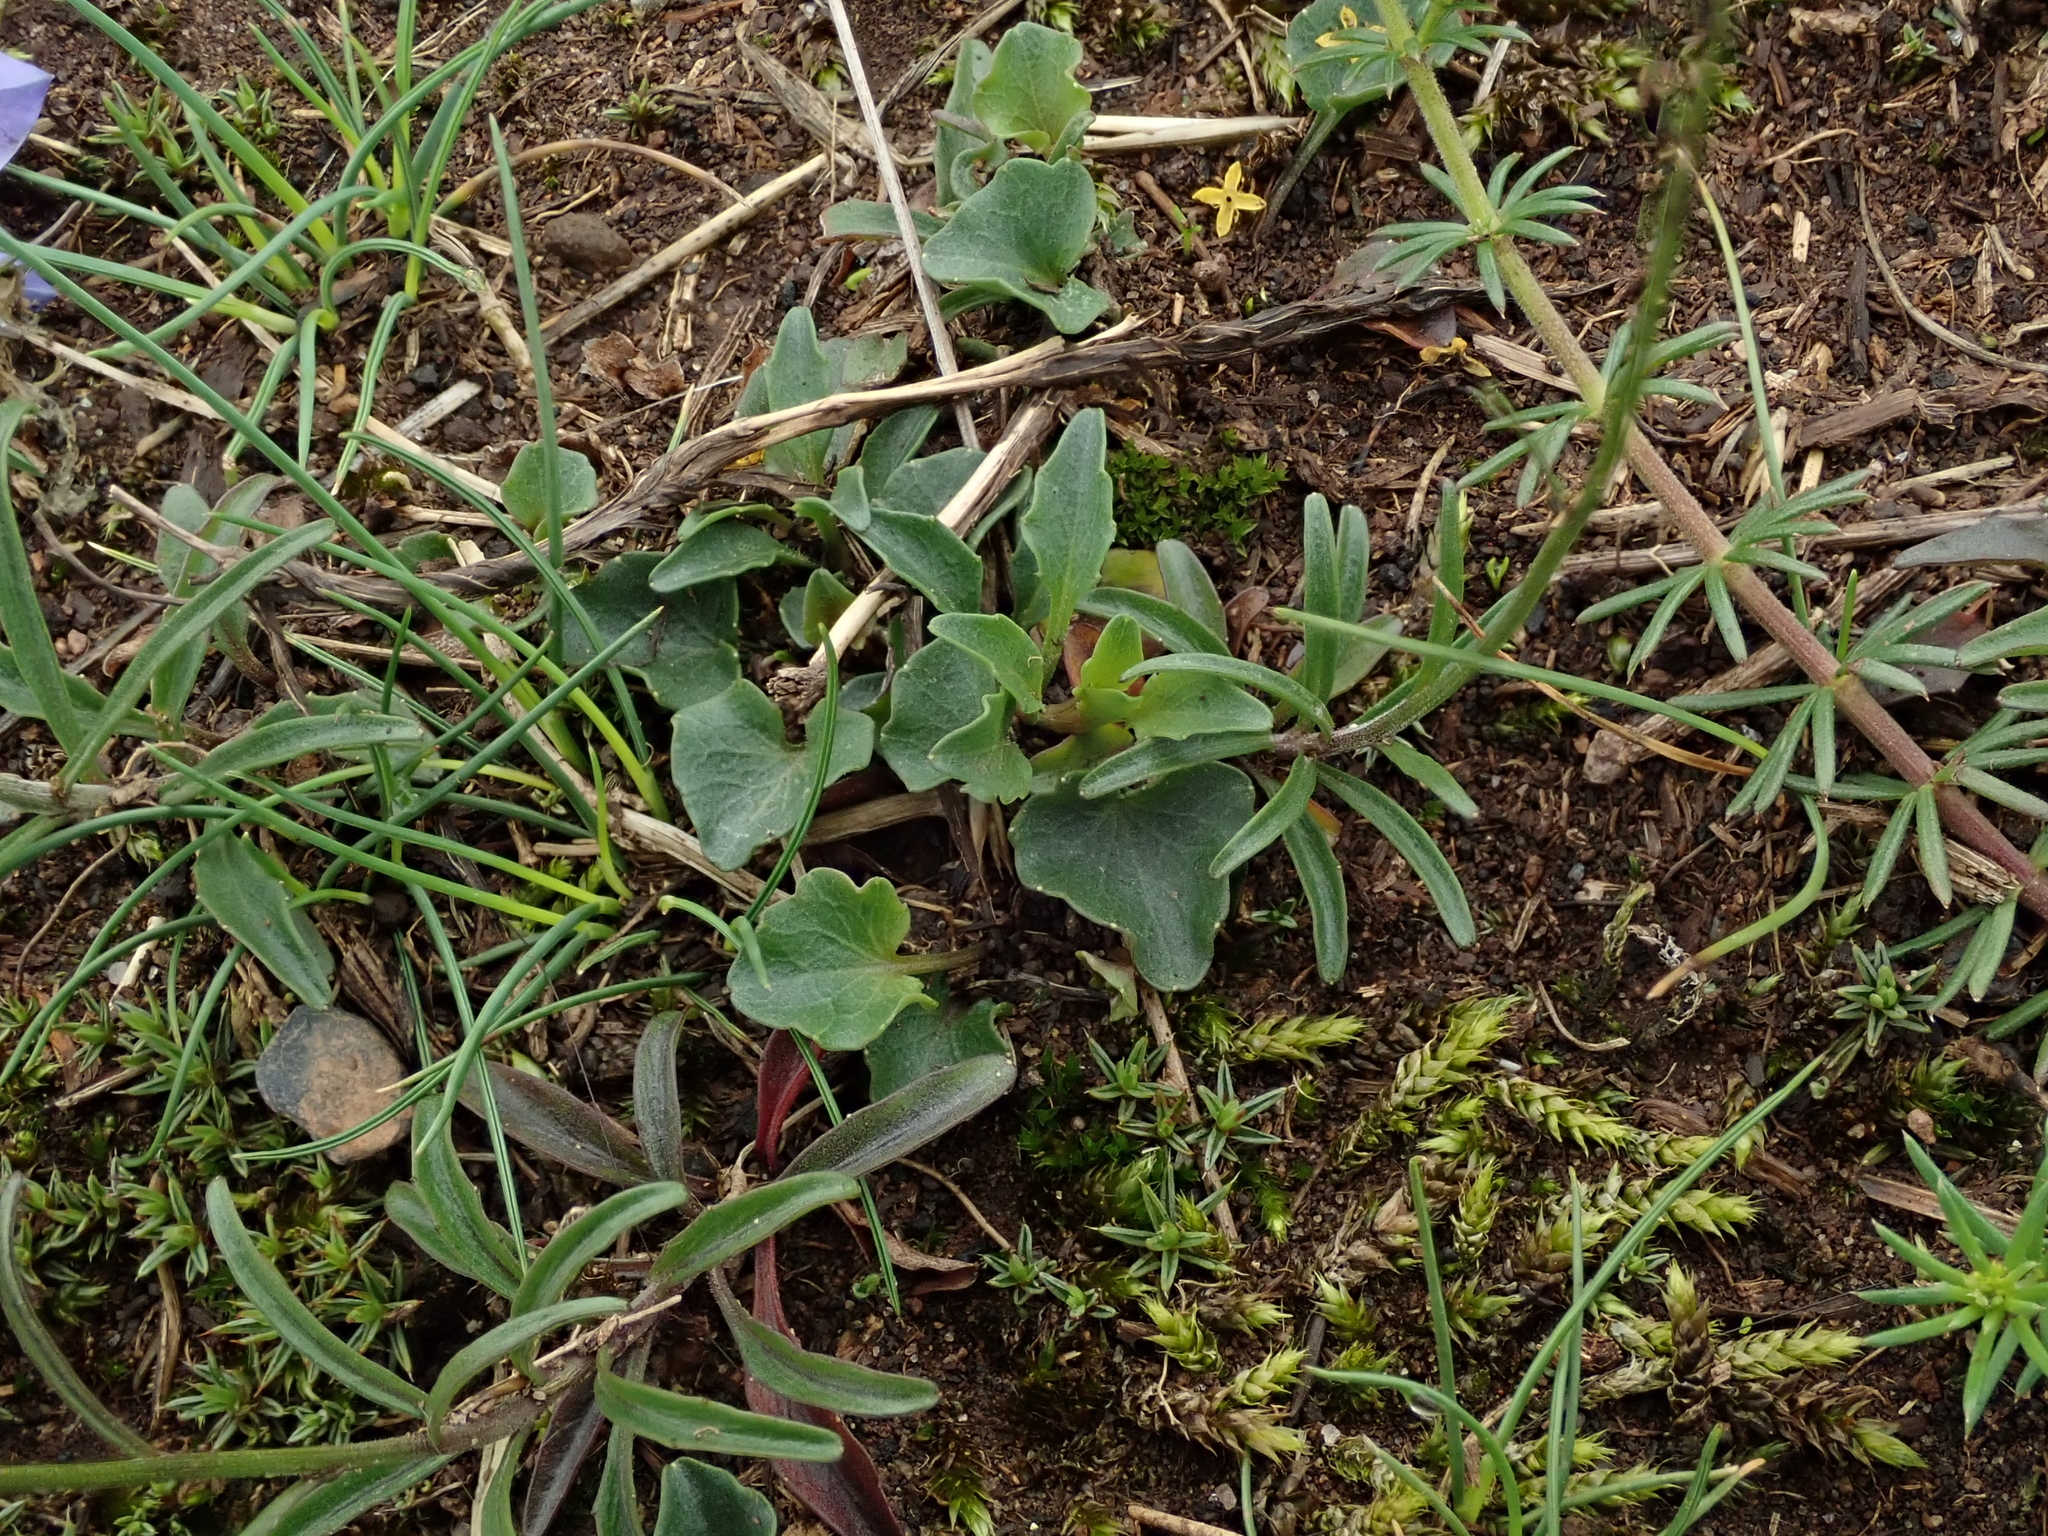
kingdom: Plantae
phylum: Tracheophyta
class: Magnoliopsida
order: Asterales
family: Campanulaceae
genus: Campanula
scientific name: Campanula rotundifolia
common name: Harebell
